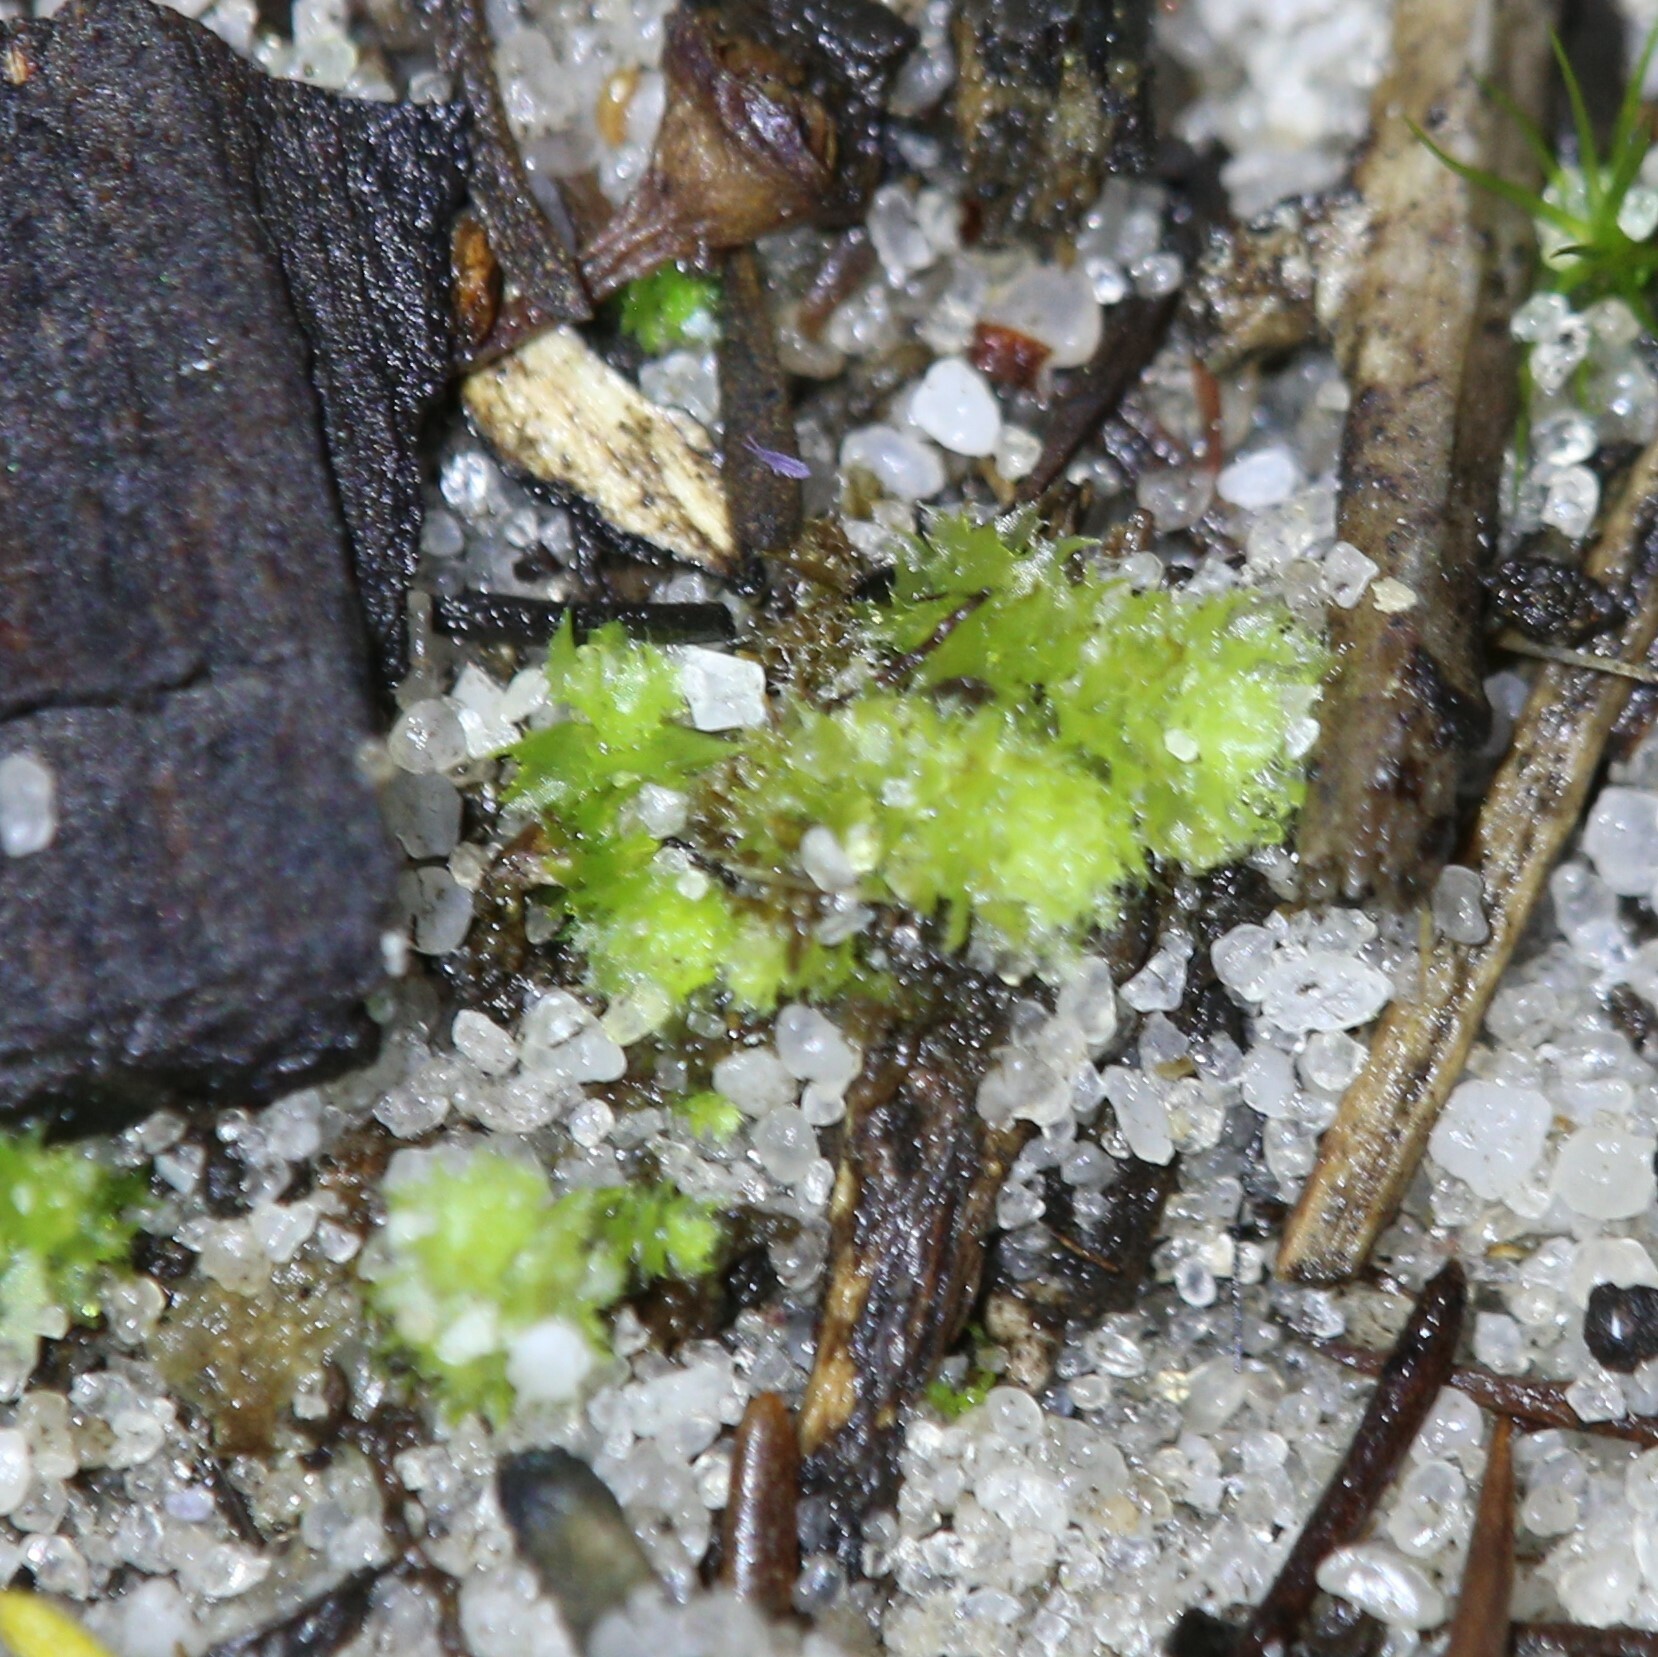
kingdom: Plantae
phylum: Marchantiophyta
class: Jungermanniopsida
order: Jungermanniales
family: Cephaloziellaceae
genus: Chaetophyllopsis
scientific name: Chaetophyllopsis whiteleggei
